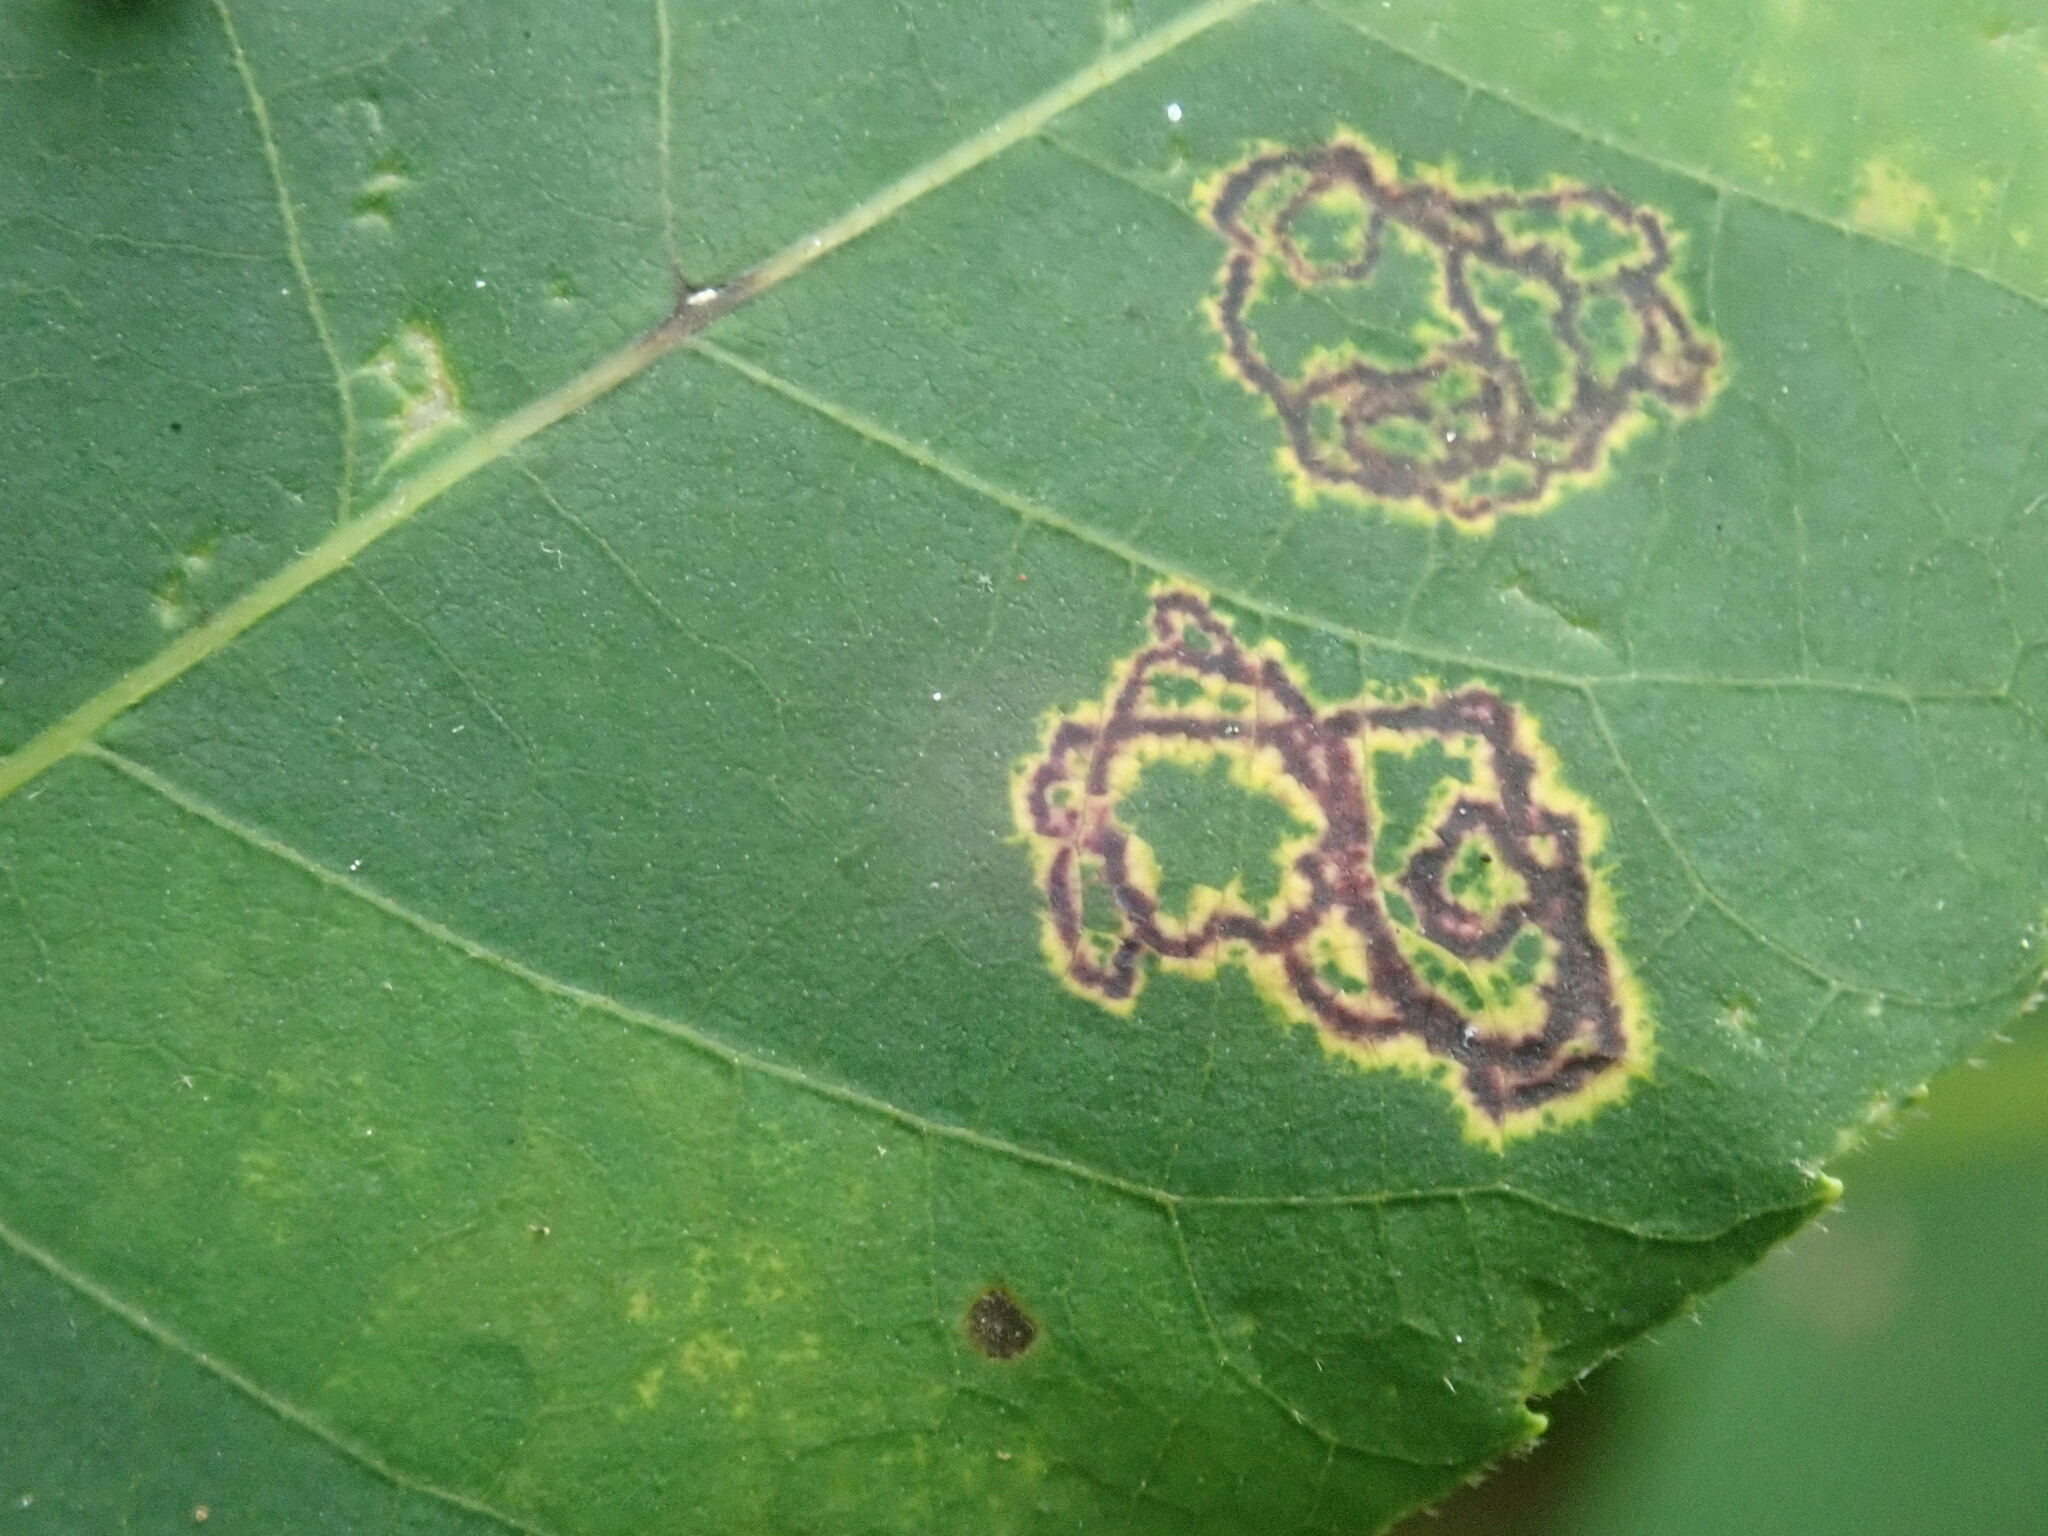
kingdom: Animalia
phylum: Arthropoda
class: Insecta
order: Diptera
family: Cecidomyiidae
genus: Gliaspilota
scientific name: Gliaspilota glutinosa
